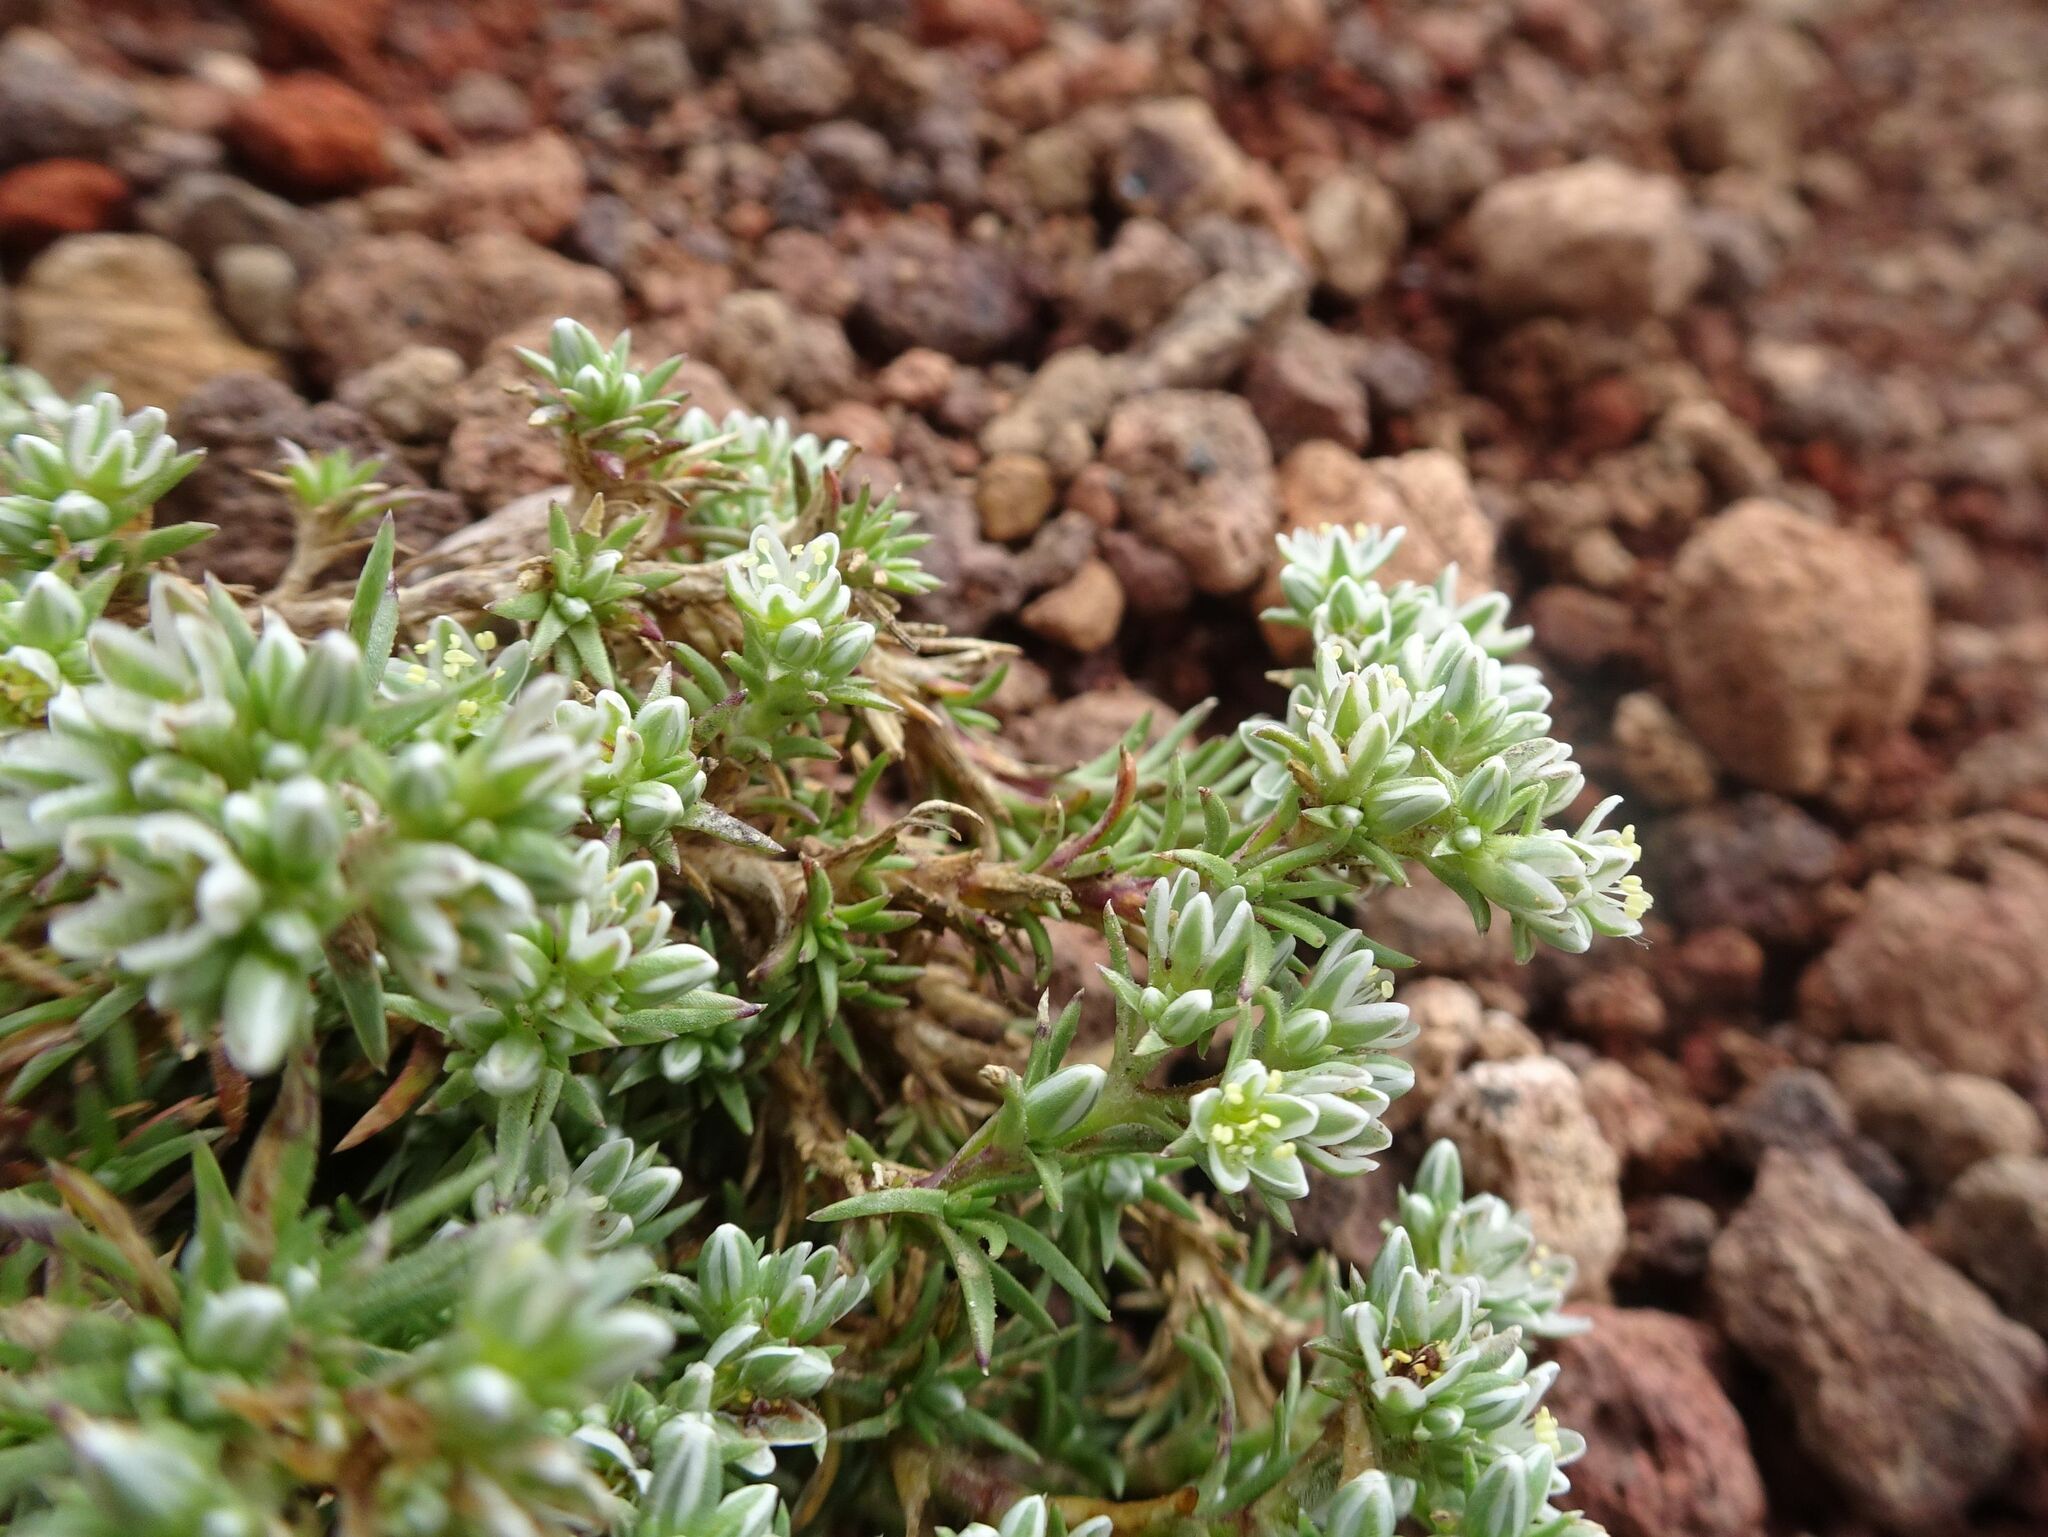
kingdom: Plantae
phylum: Tracheophyta
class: Magnoliopsida
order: Caryophyllales
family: Caryophyllaceae
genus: Scleranthus
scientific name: Scleranthus perennis
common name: Perennial knawel
